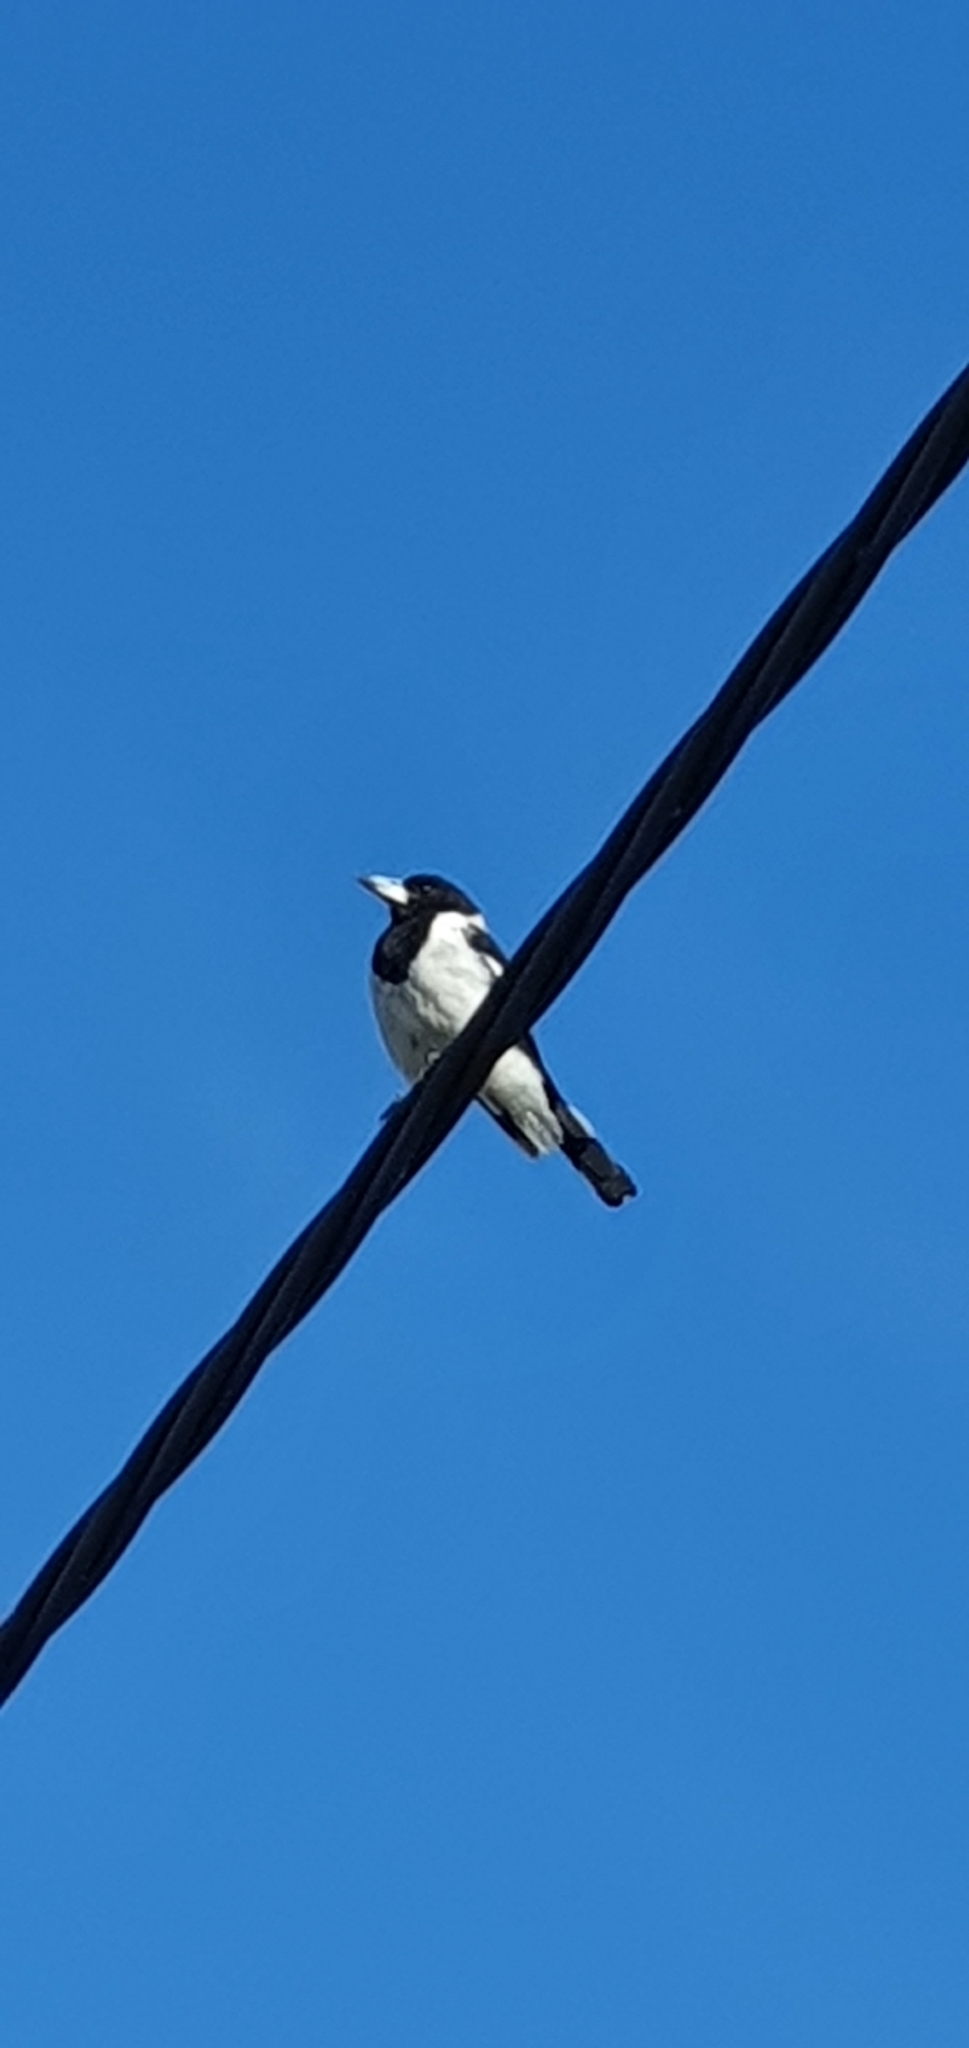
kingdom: Animalia
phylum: Chordata
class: Aves
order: Passeriformes
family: Cracticidae
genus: Cracticus
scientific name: Cracticus nigrogularis
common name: Pied butcherbird
